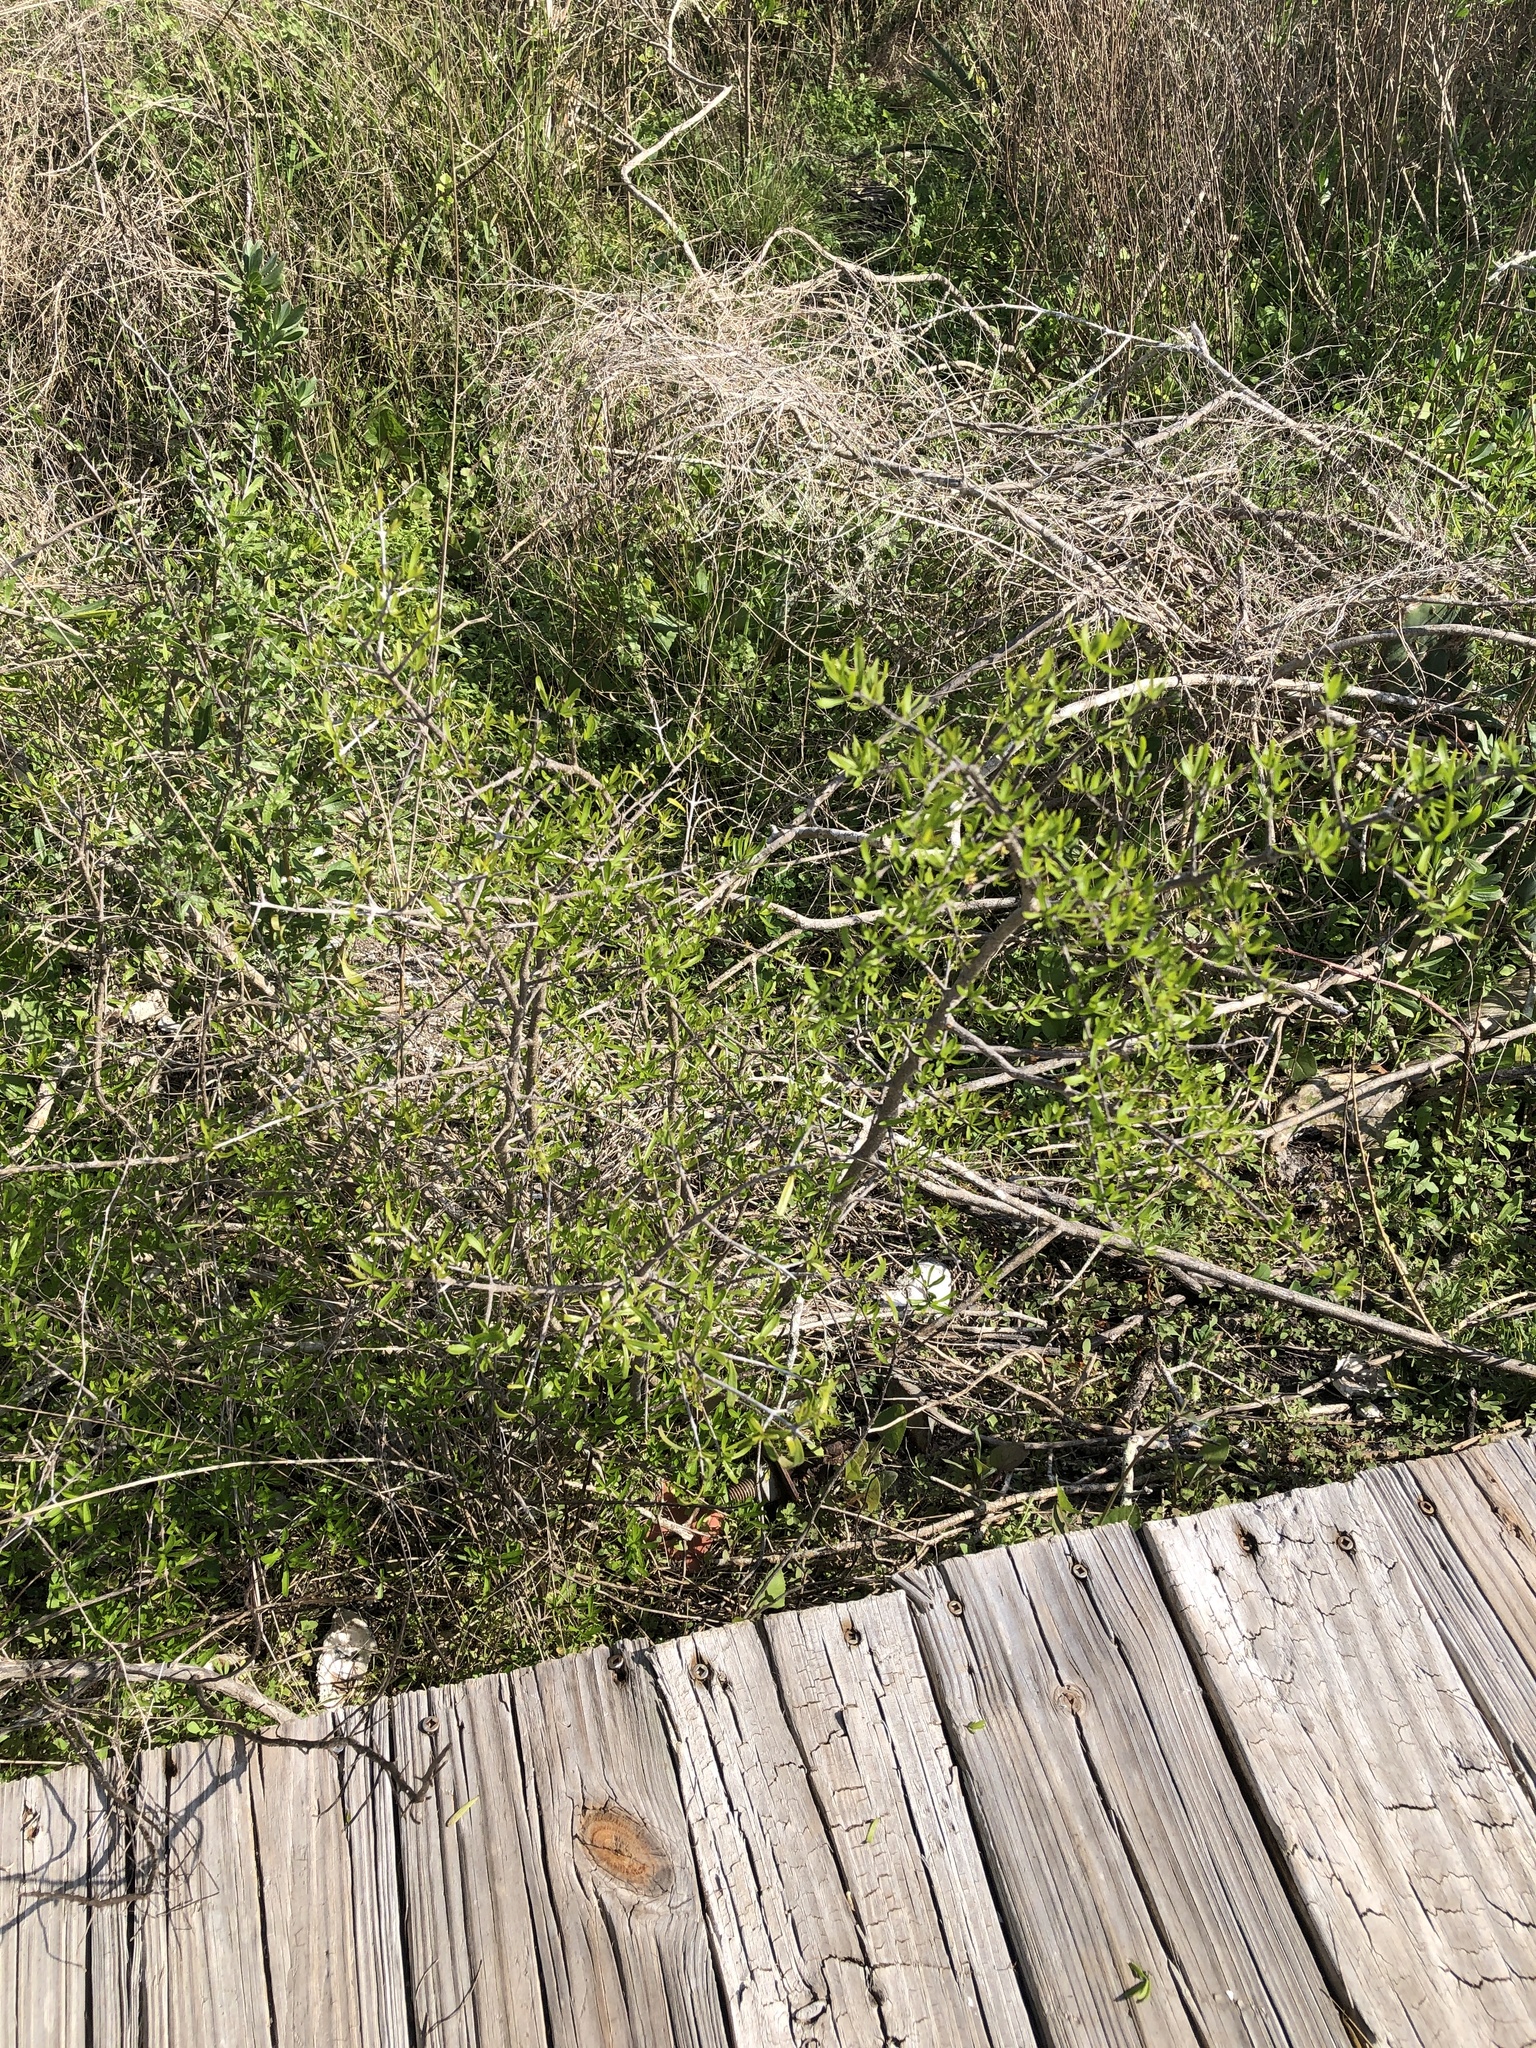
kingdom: Plantae
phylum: Tracheophyta
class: Magnoliopsida
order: Lamiales
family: Oleaceae
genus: Forestiera
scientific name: Forestiera angustifolia
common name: Elbowbush
